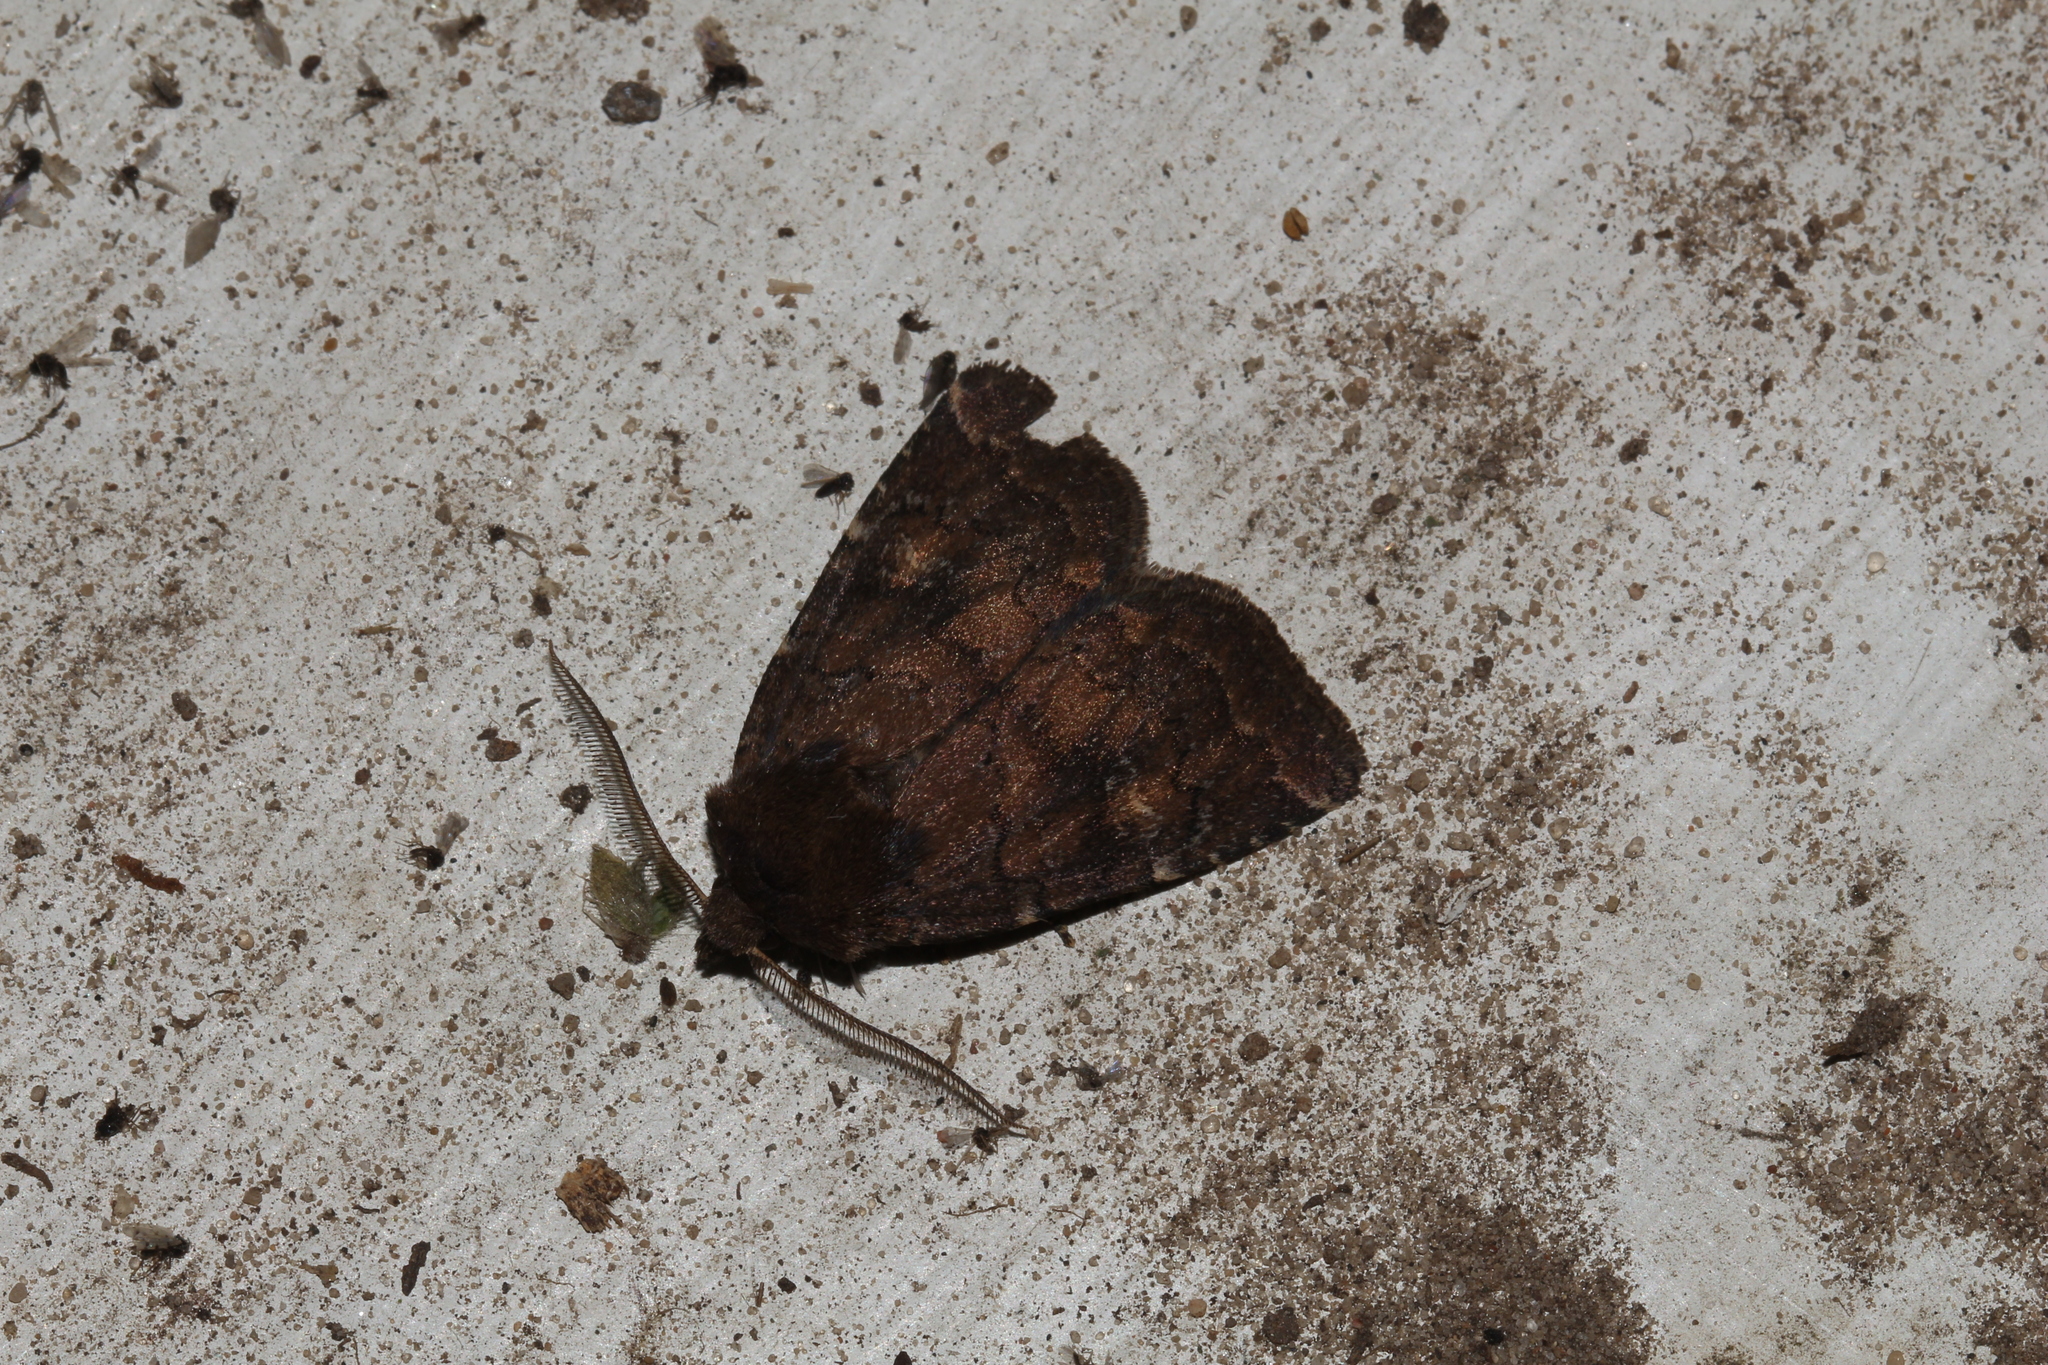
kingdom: Animalia
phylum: Arthropoda
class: Insecta
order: Lepidoptera
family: Noctuidae
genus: Charanyca
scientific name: Charanyca ferruginea
